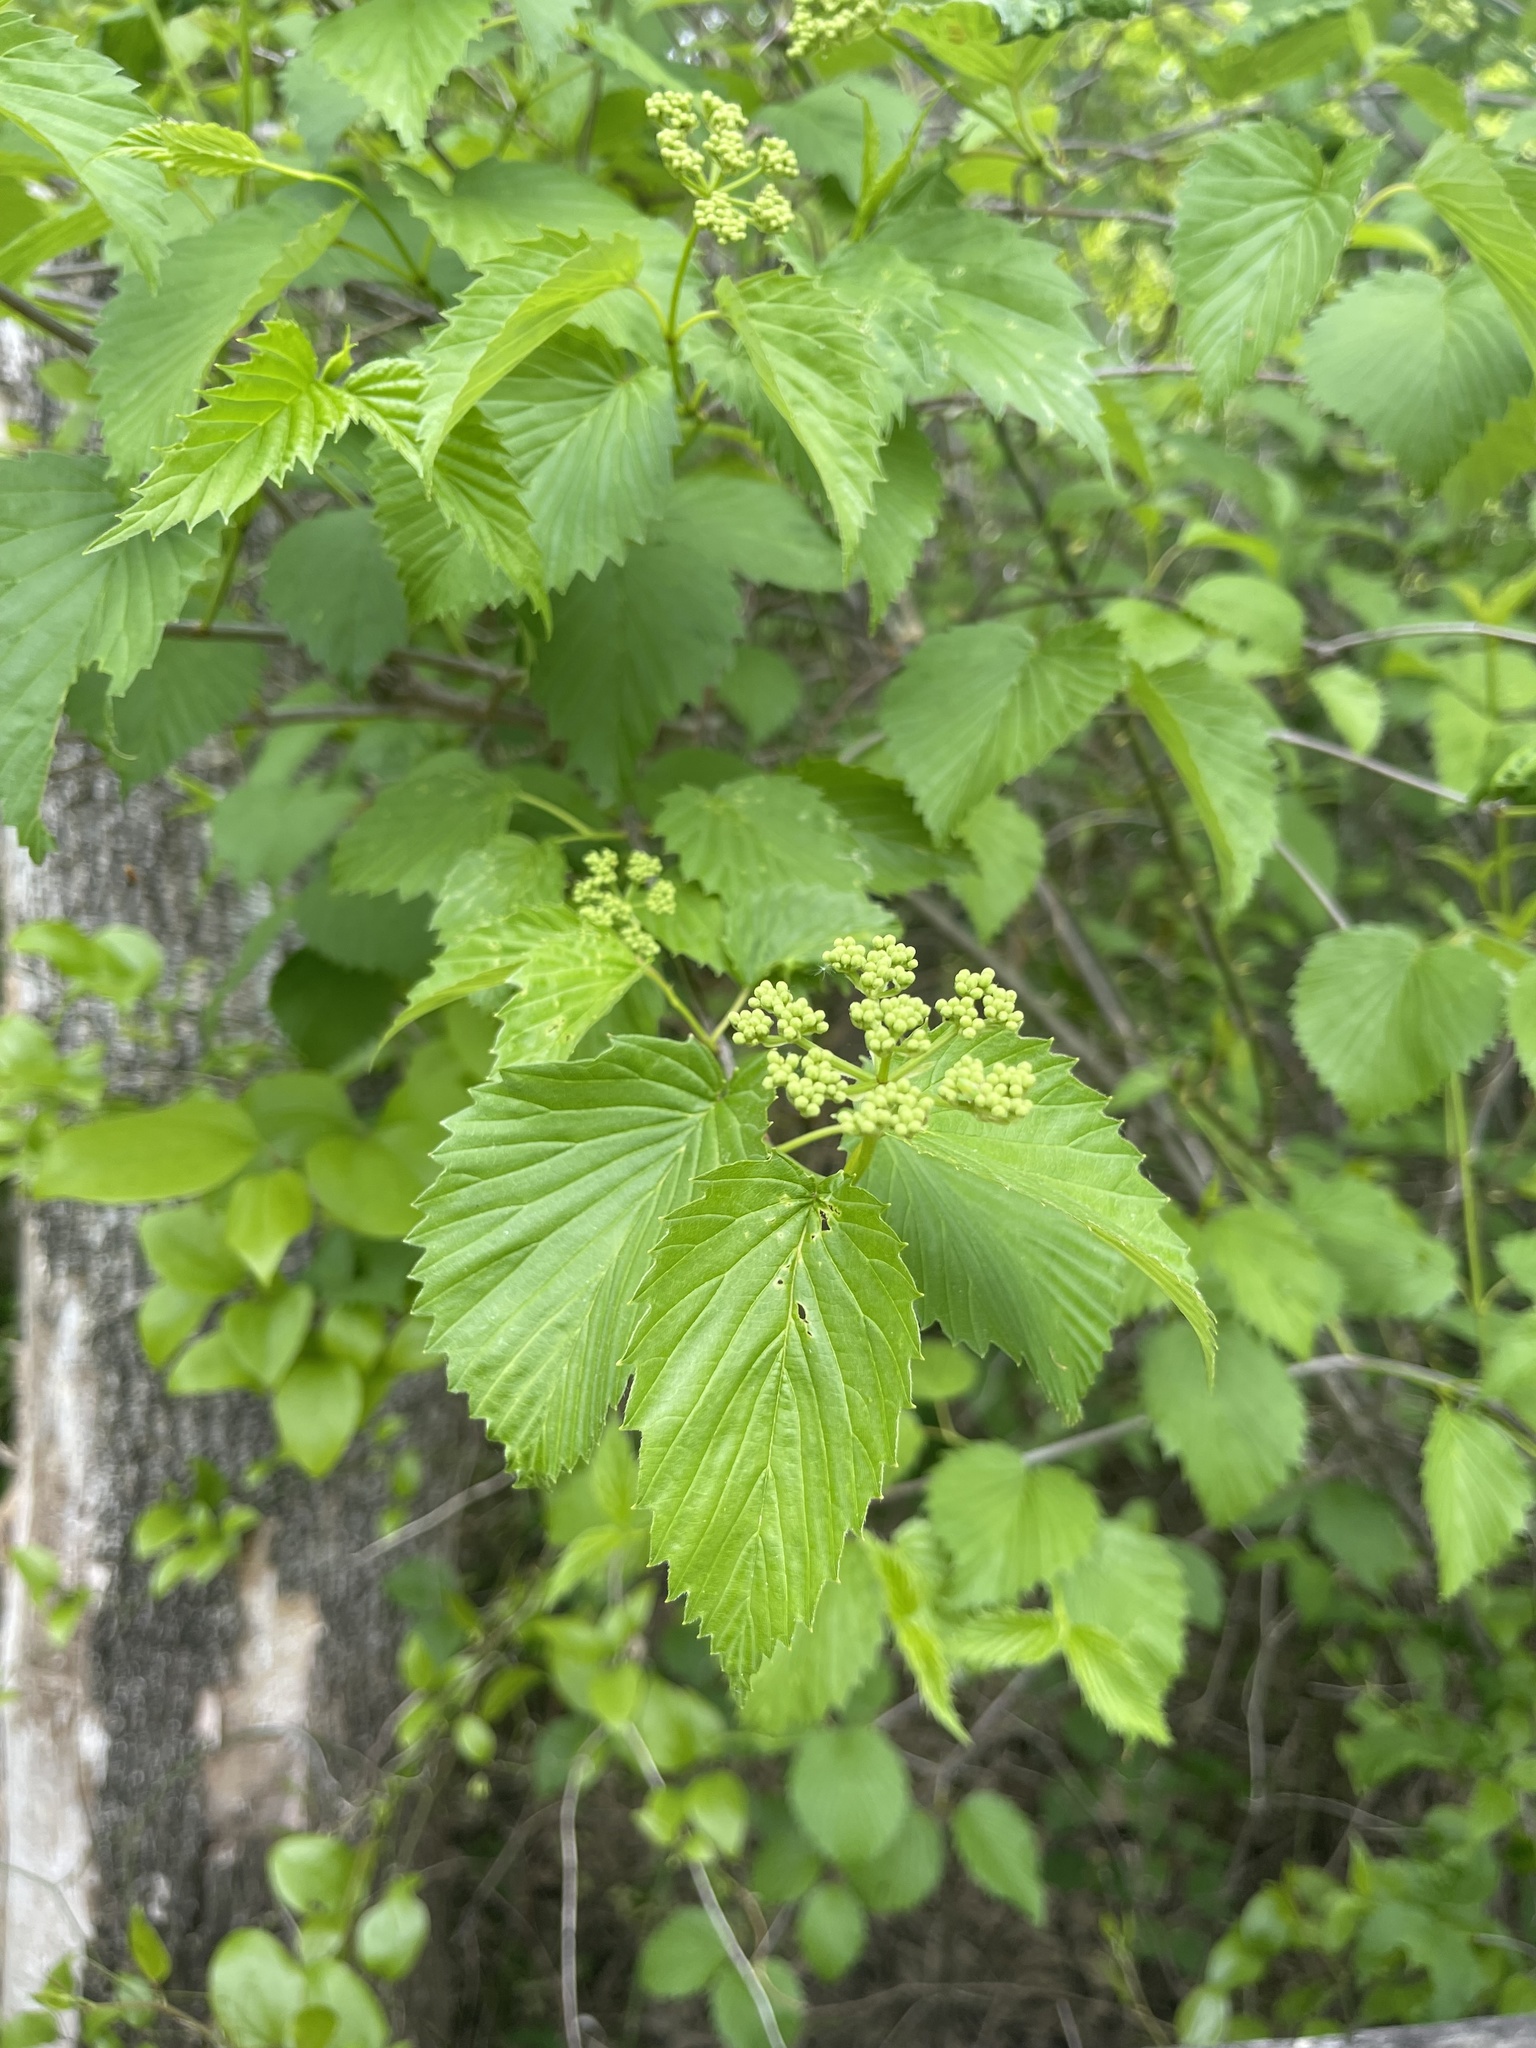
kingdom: Plantae
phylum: Tracheophyta
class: Magnoliopsida
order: Dipsacales
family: Viburnaceae
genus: Viburnum
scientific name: Viburnum recognitum
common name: Northern arrow-wood
